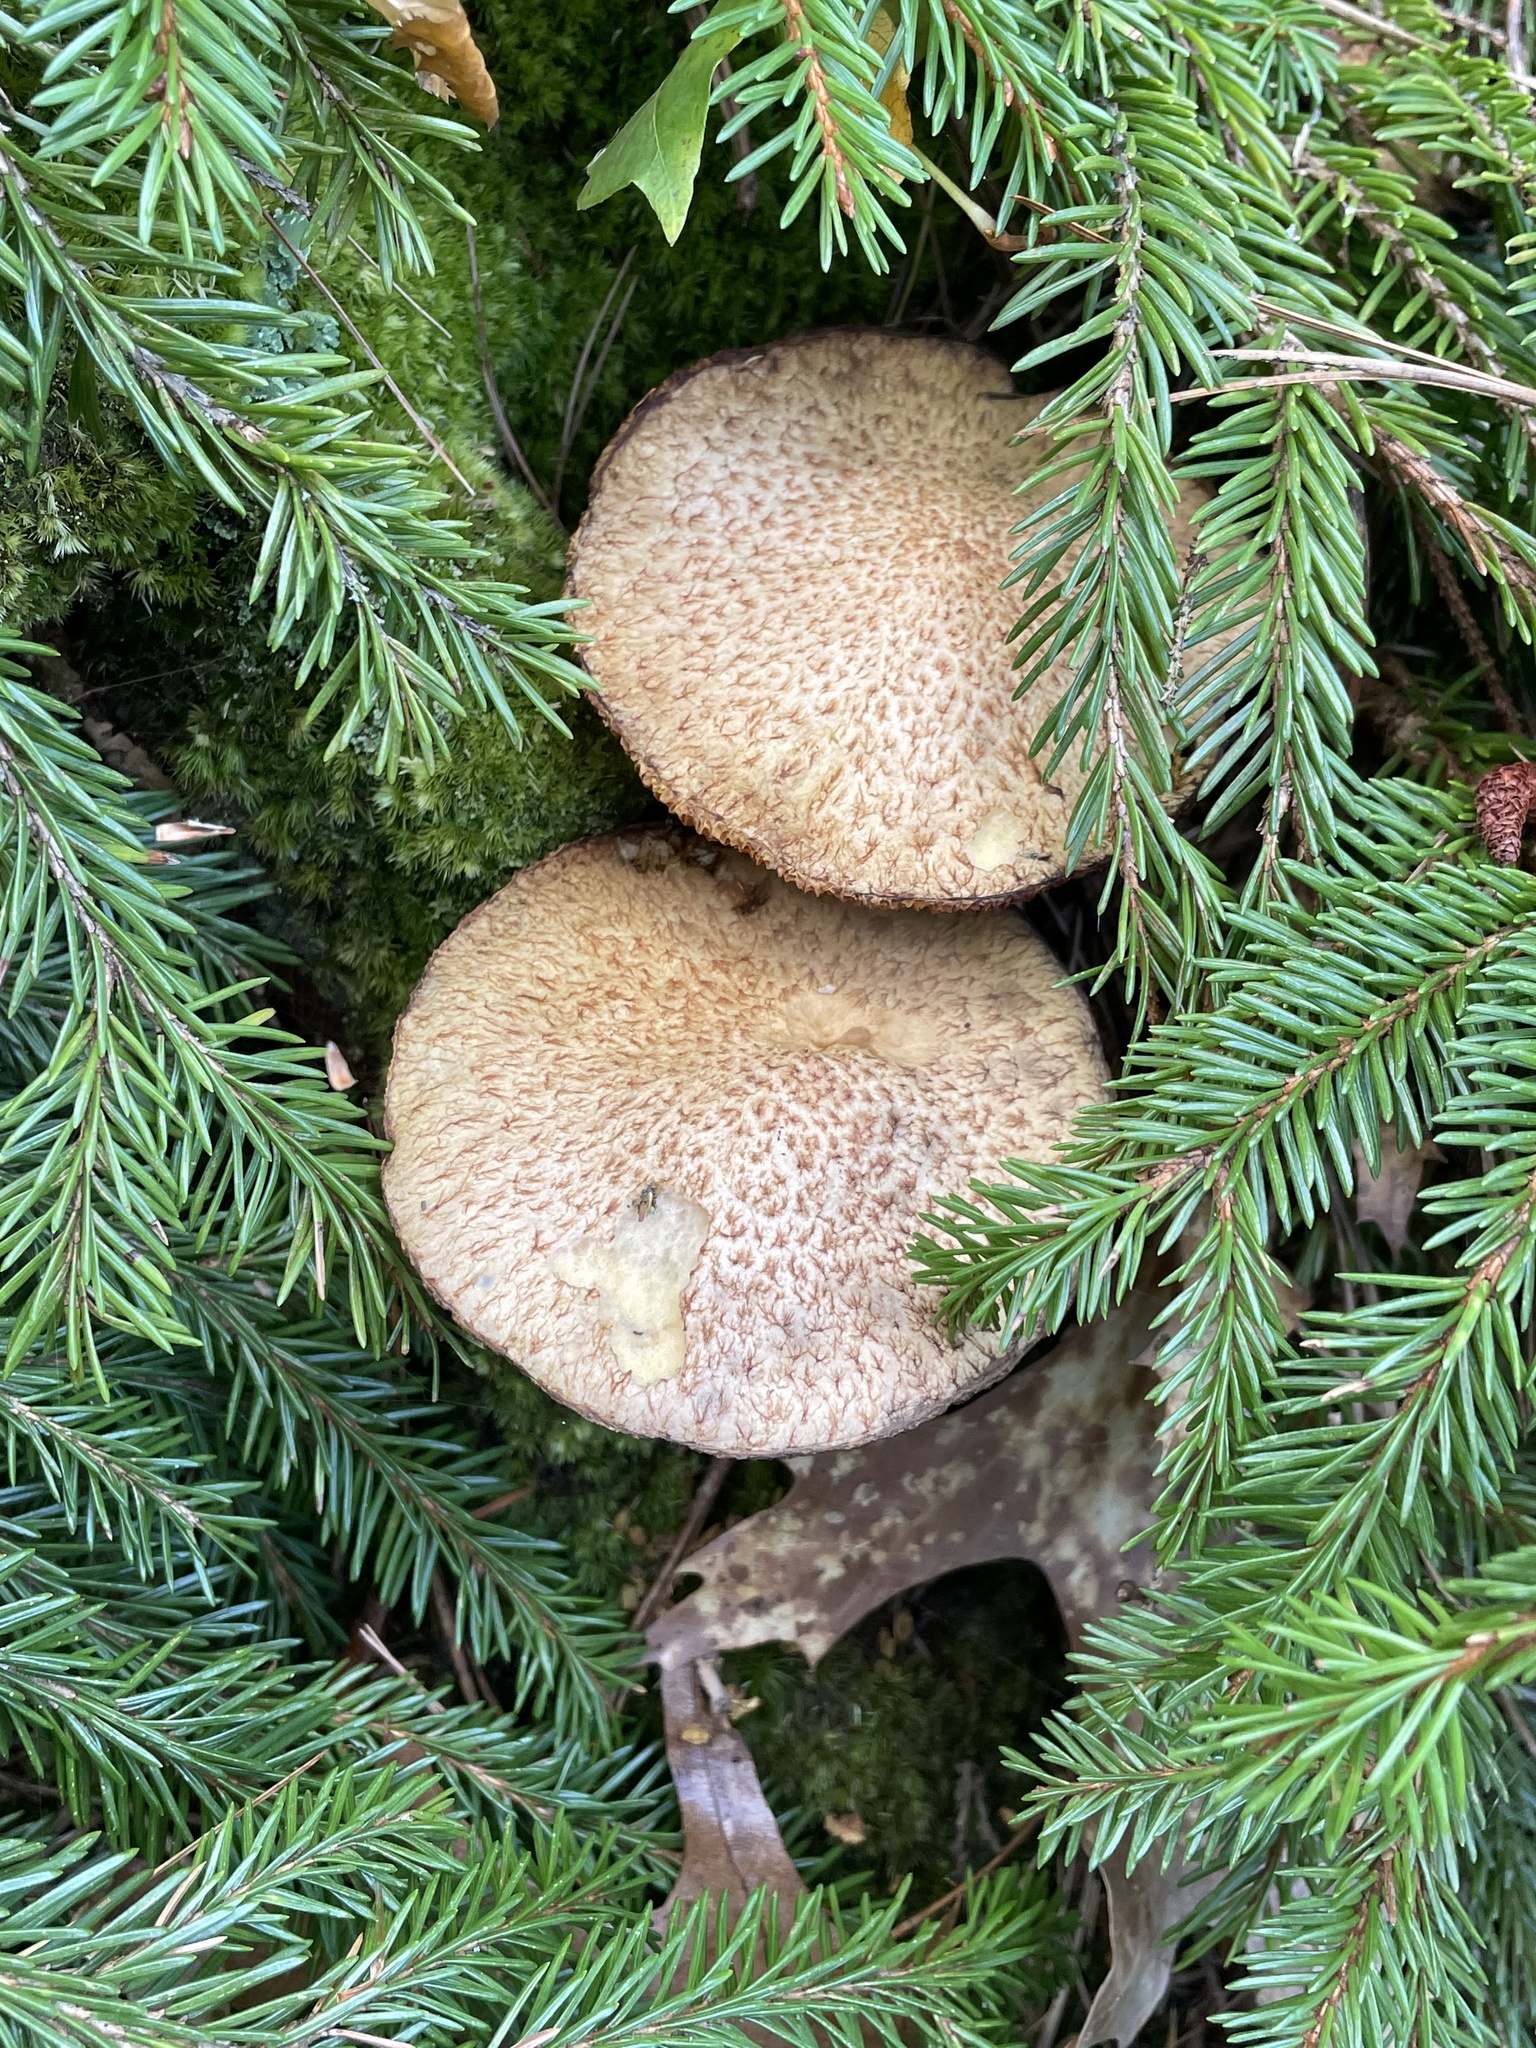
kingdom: Fungi
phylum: Basidiomycota
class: Agaricomycetes
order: Boletales
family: Suillaceae
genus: Suillus
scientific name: Suillus spraguei
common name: Painted suillus
